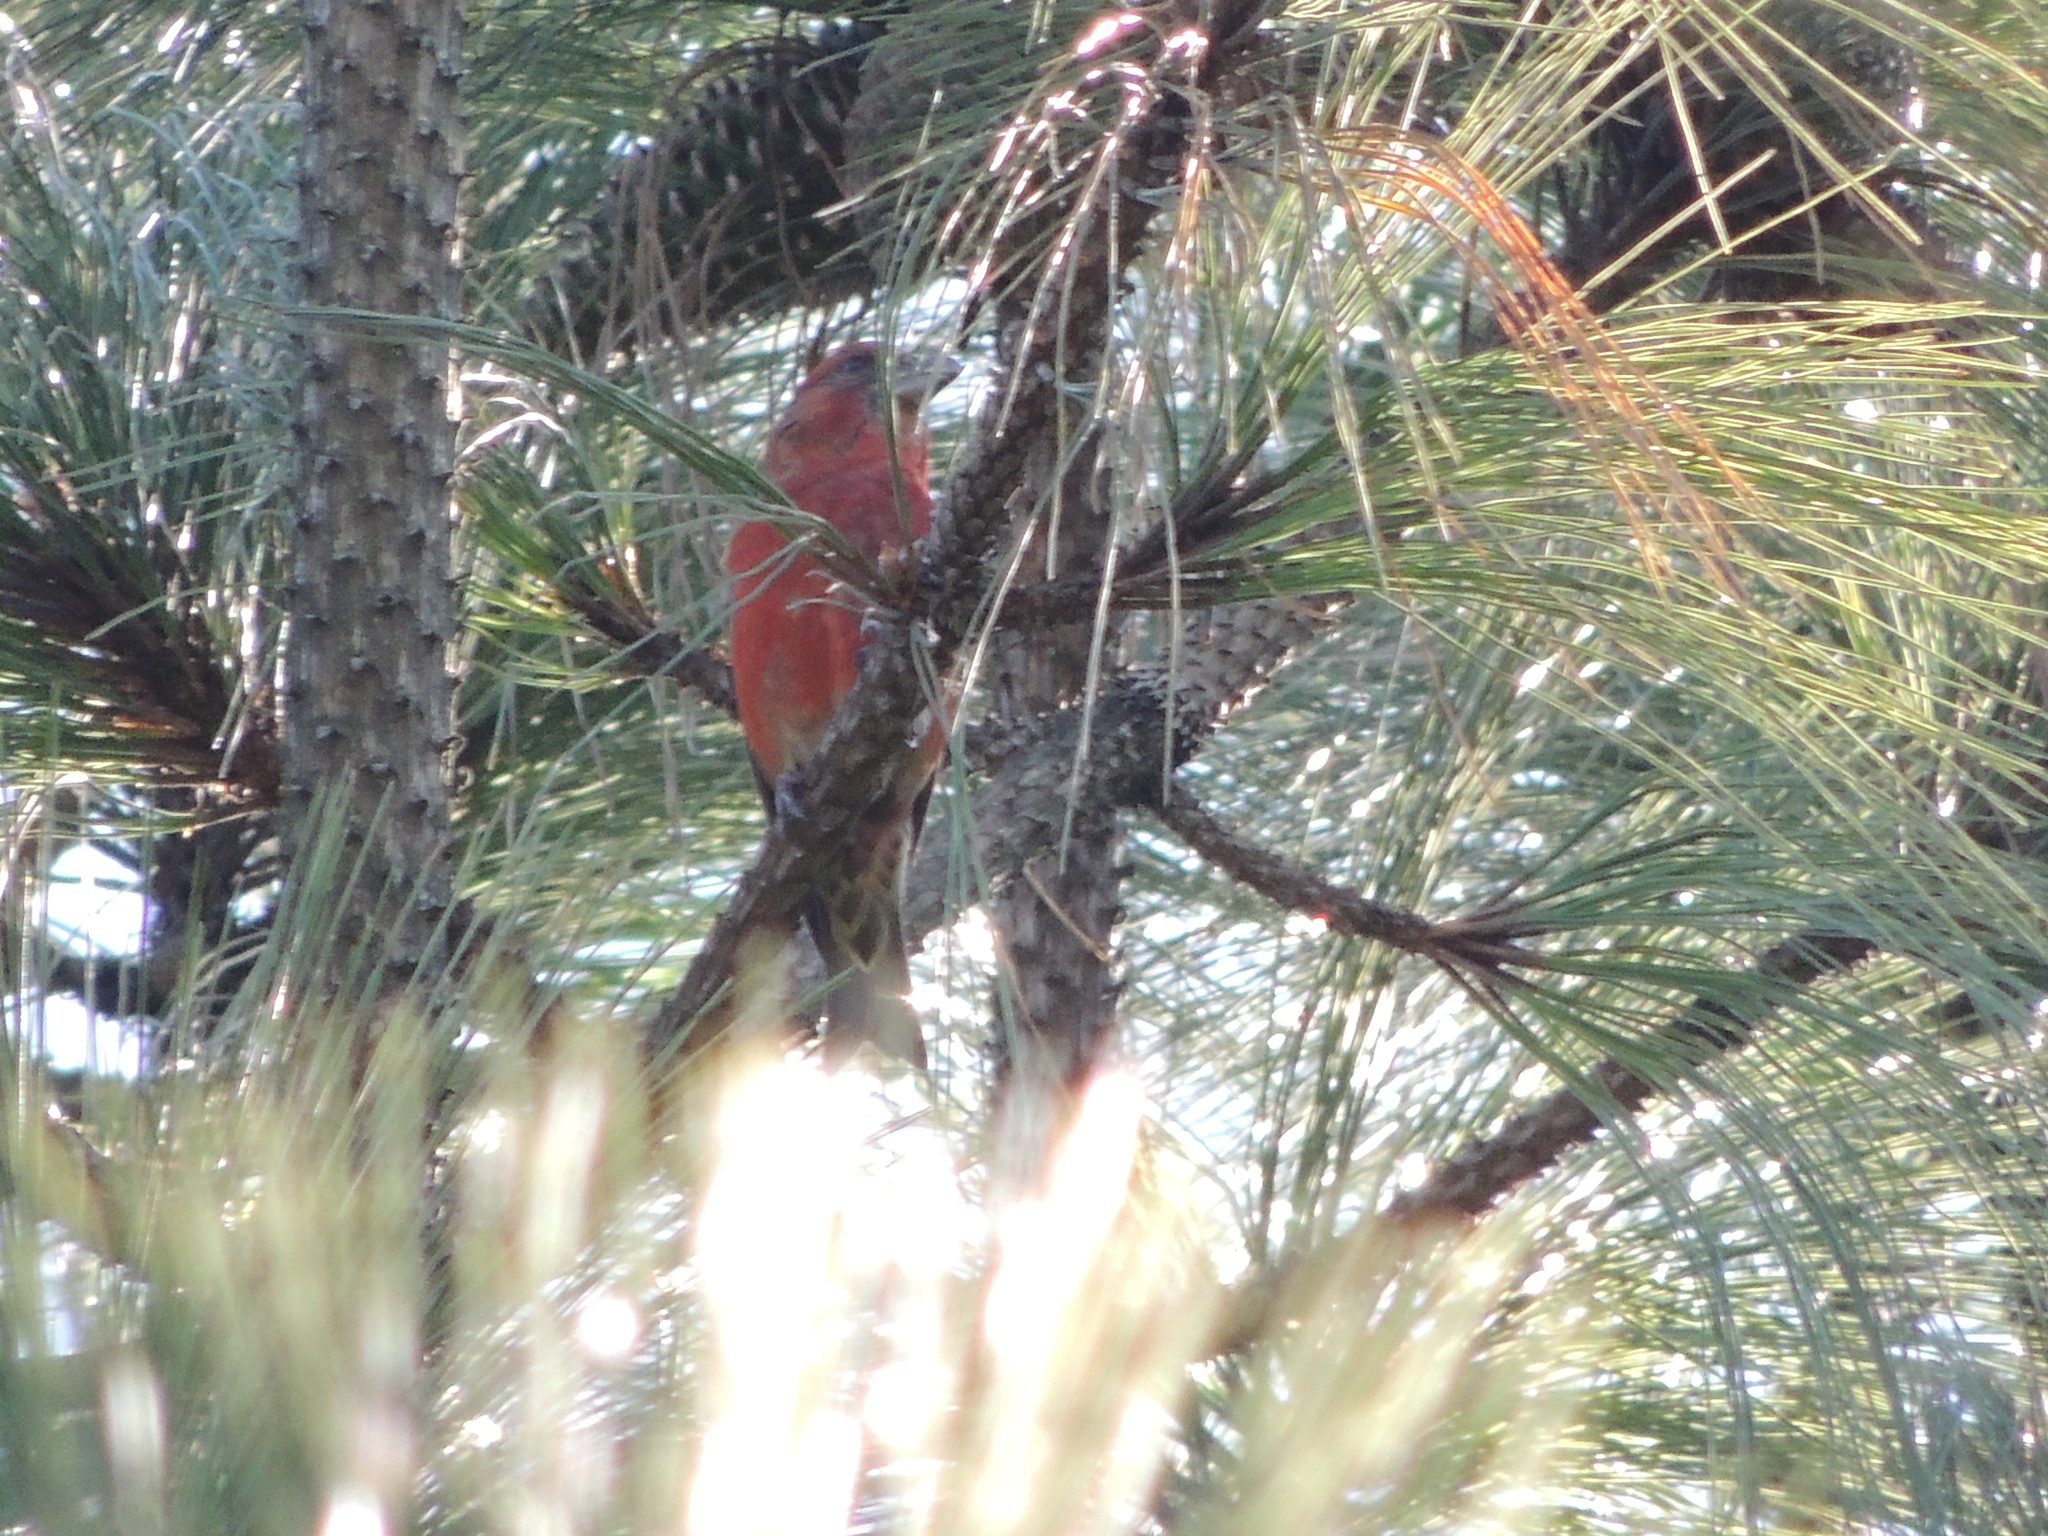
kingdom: Animalia
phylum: Chordata
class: Aves
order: Passeriformes
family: Fringillidae
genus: Loxia
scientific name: Loxia curvirostra
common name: Red crossbill
